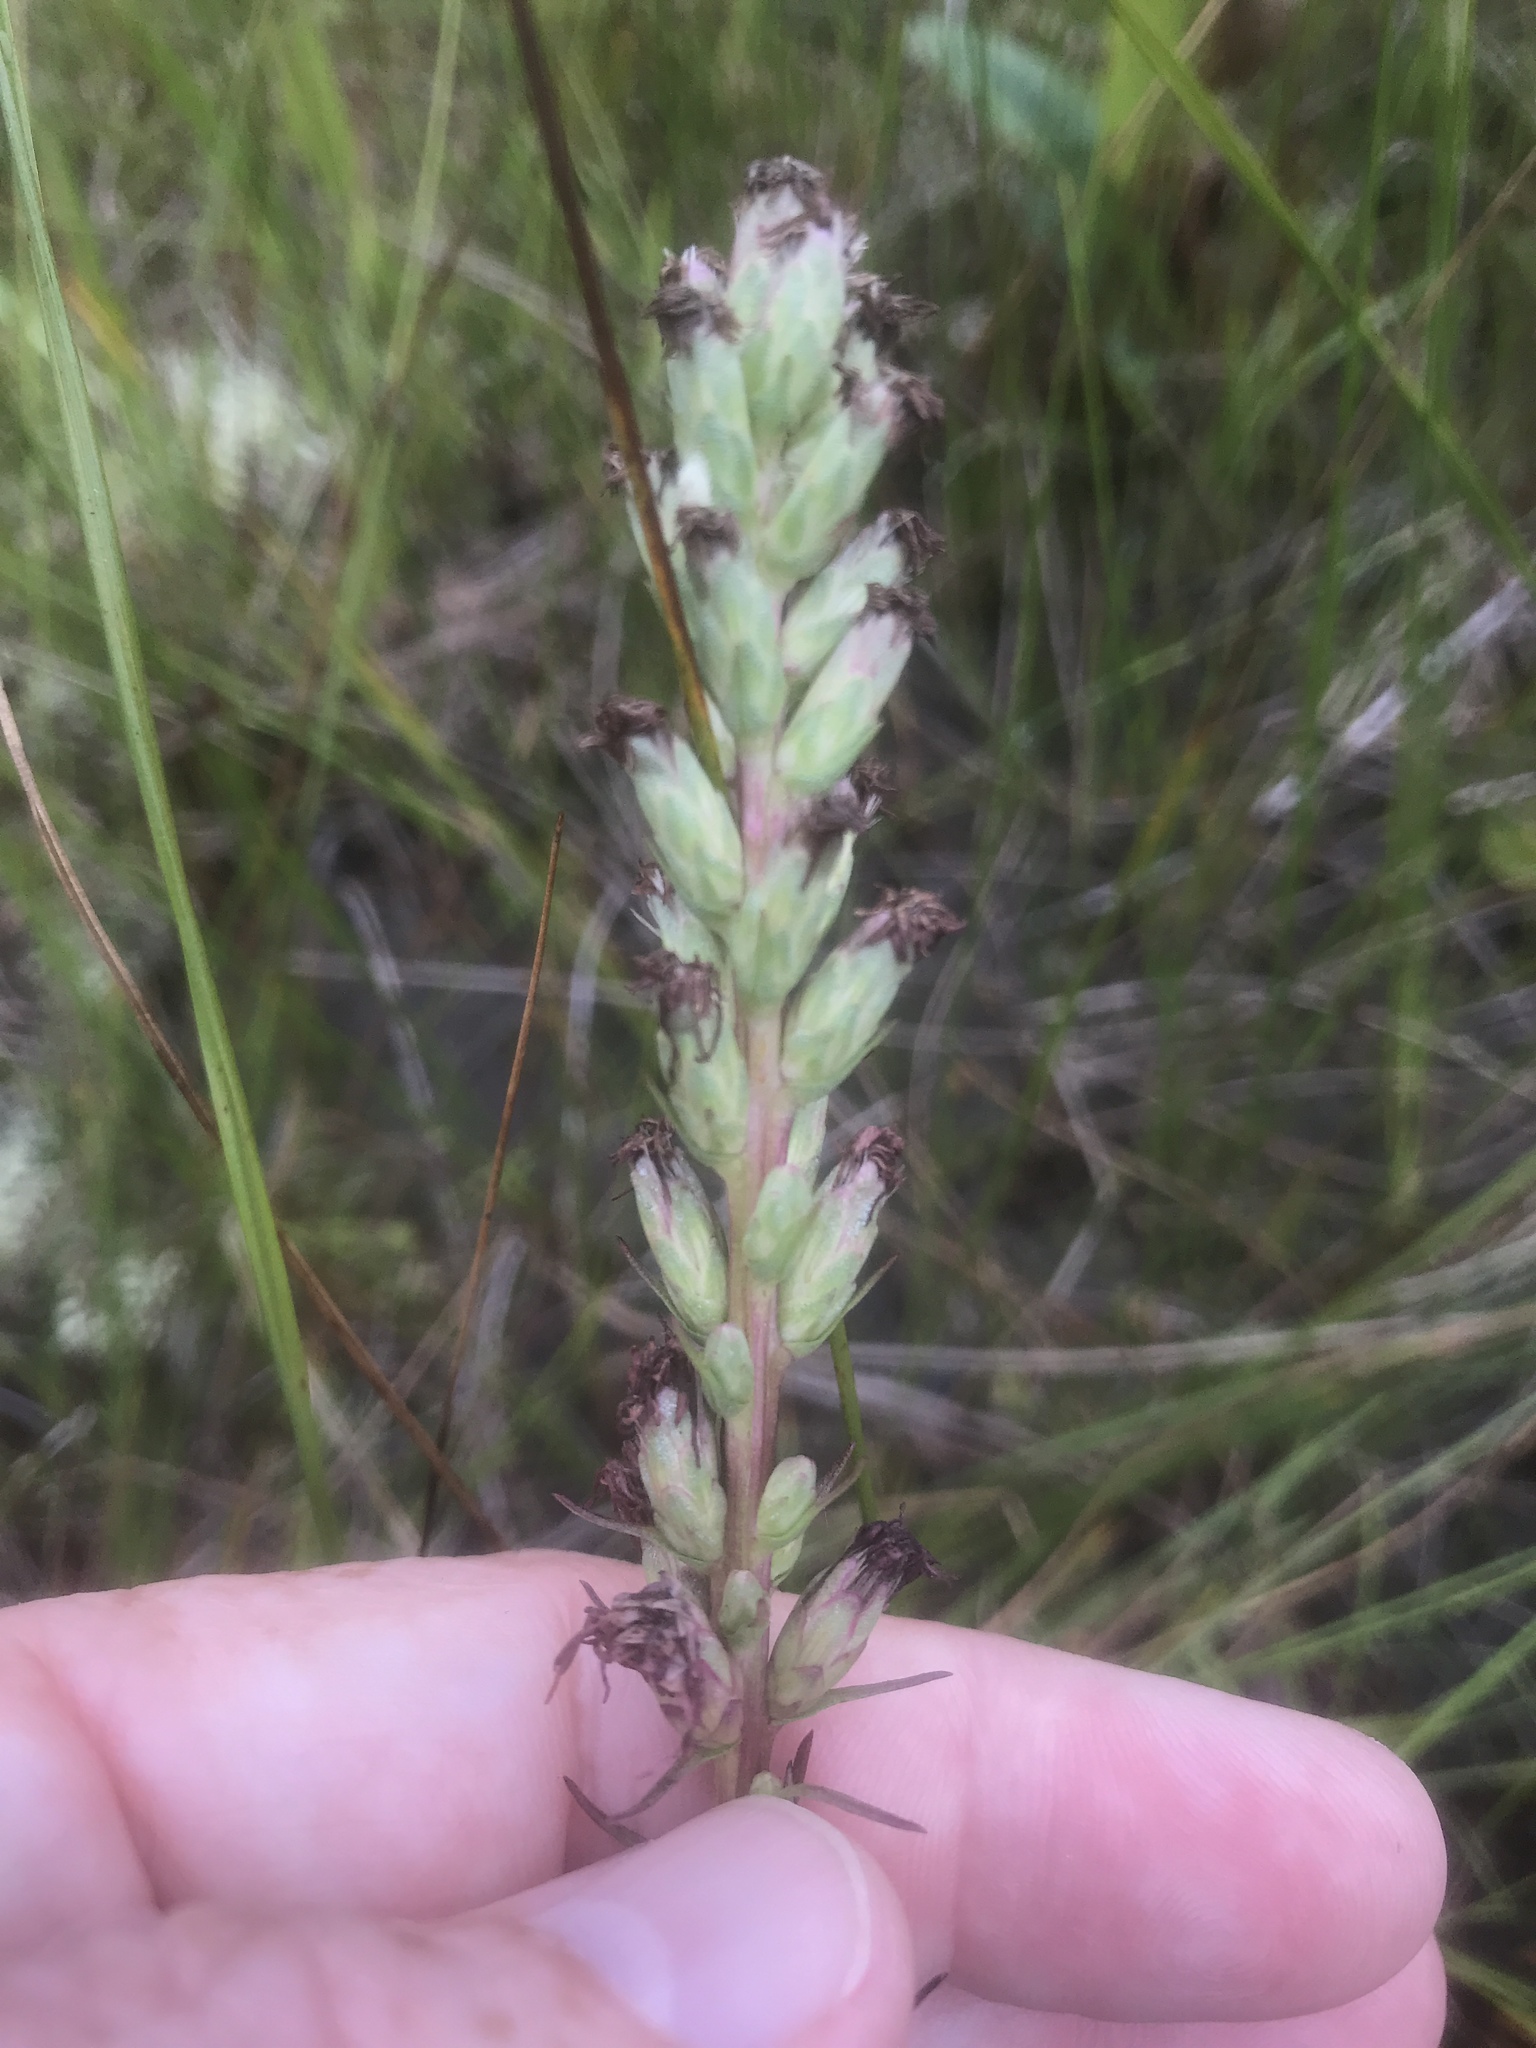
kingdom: Plantae
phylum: Tracheophyta
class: Magnoliopsida
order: Asterales
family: Asteraceae
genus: Liatris
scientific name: Liatris spicata
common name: Florist gayfeather
